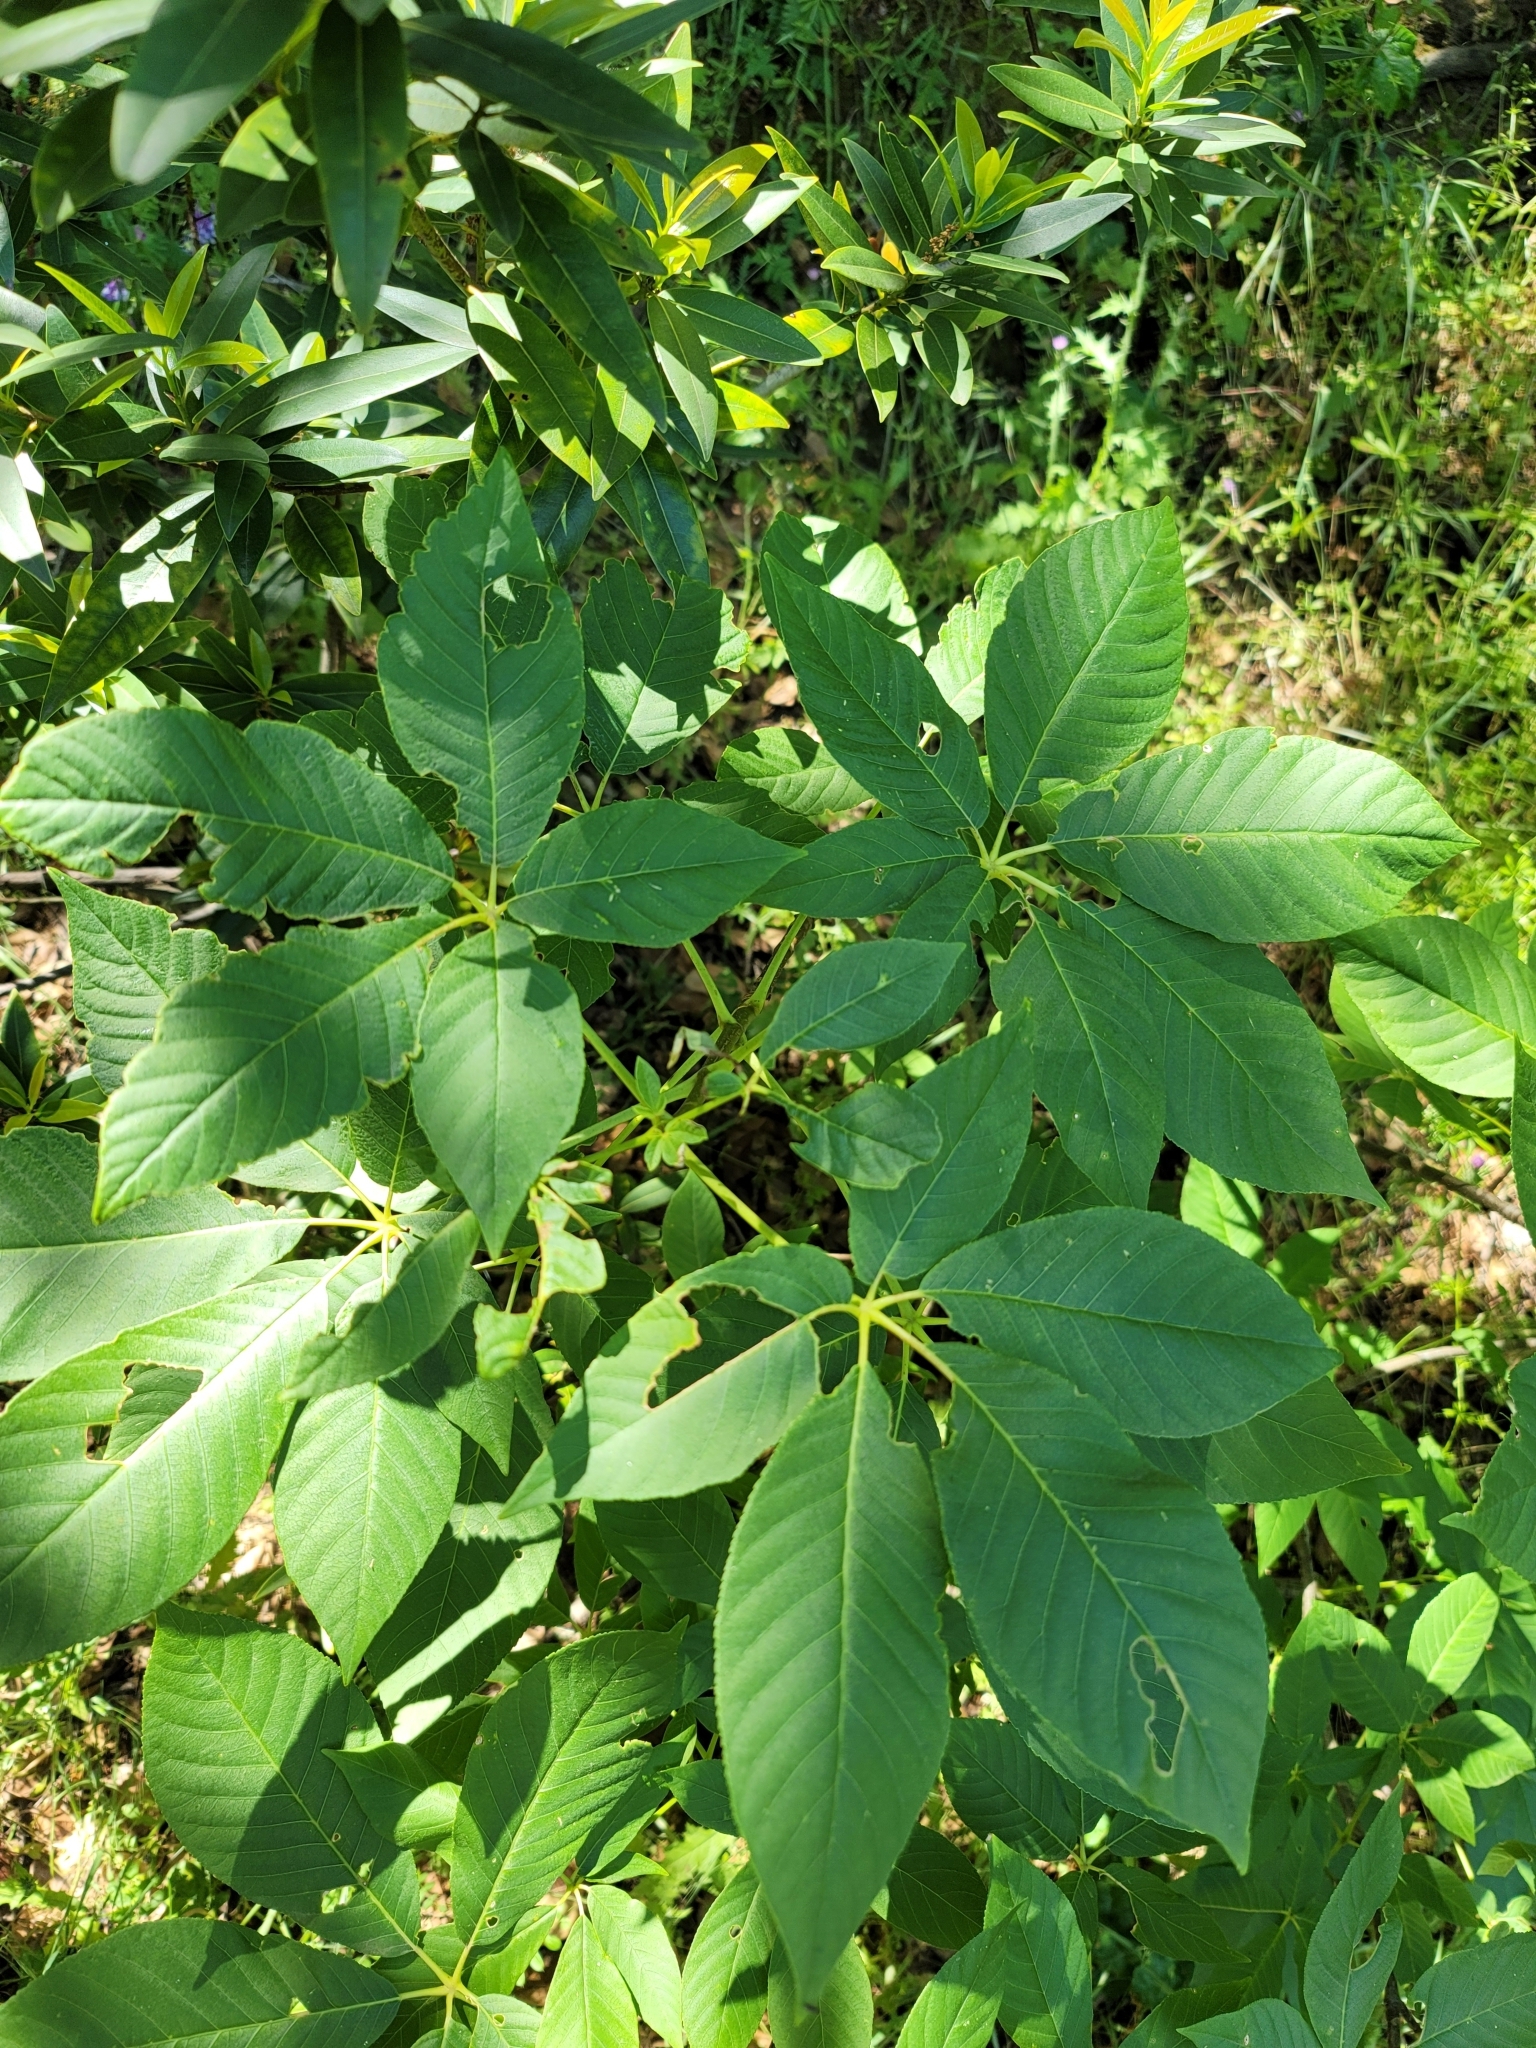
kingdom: Plantae
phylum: Tracheophyta
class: Magnoliopsida
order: Sapindales
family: Sapindaceae
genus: Aesculus
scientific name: Aesculus californica
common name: California buckeye
